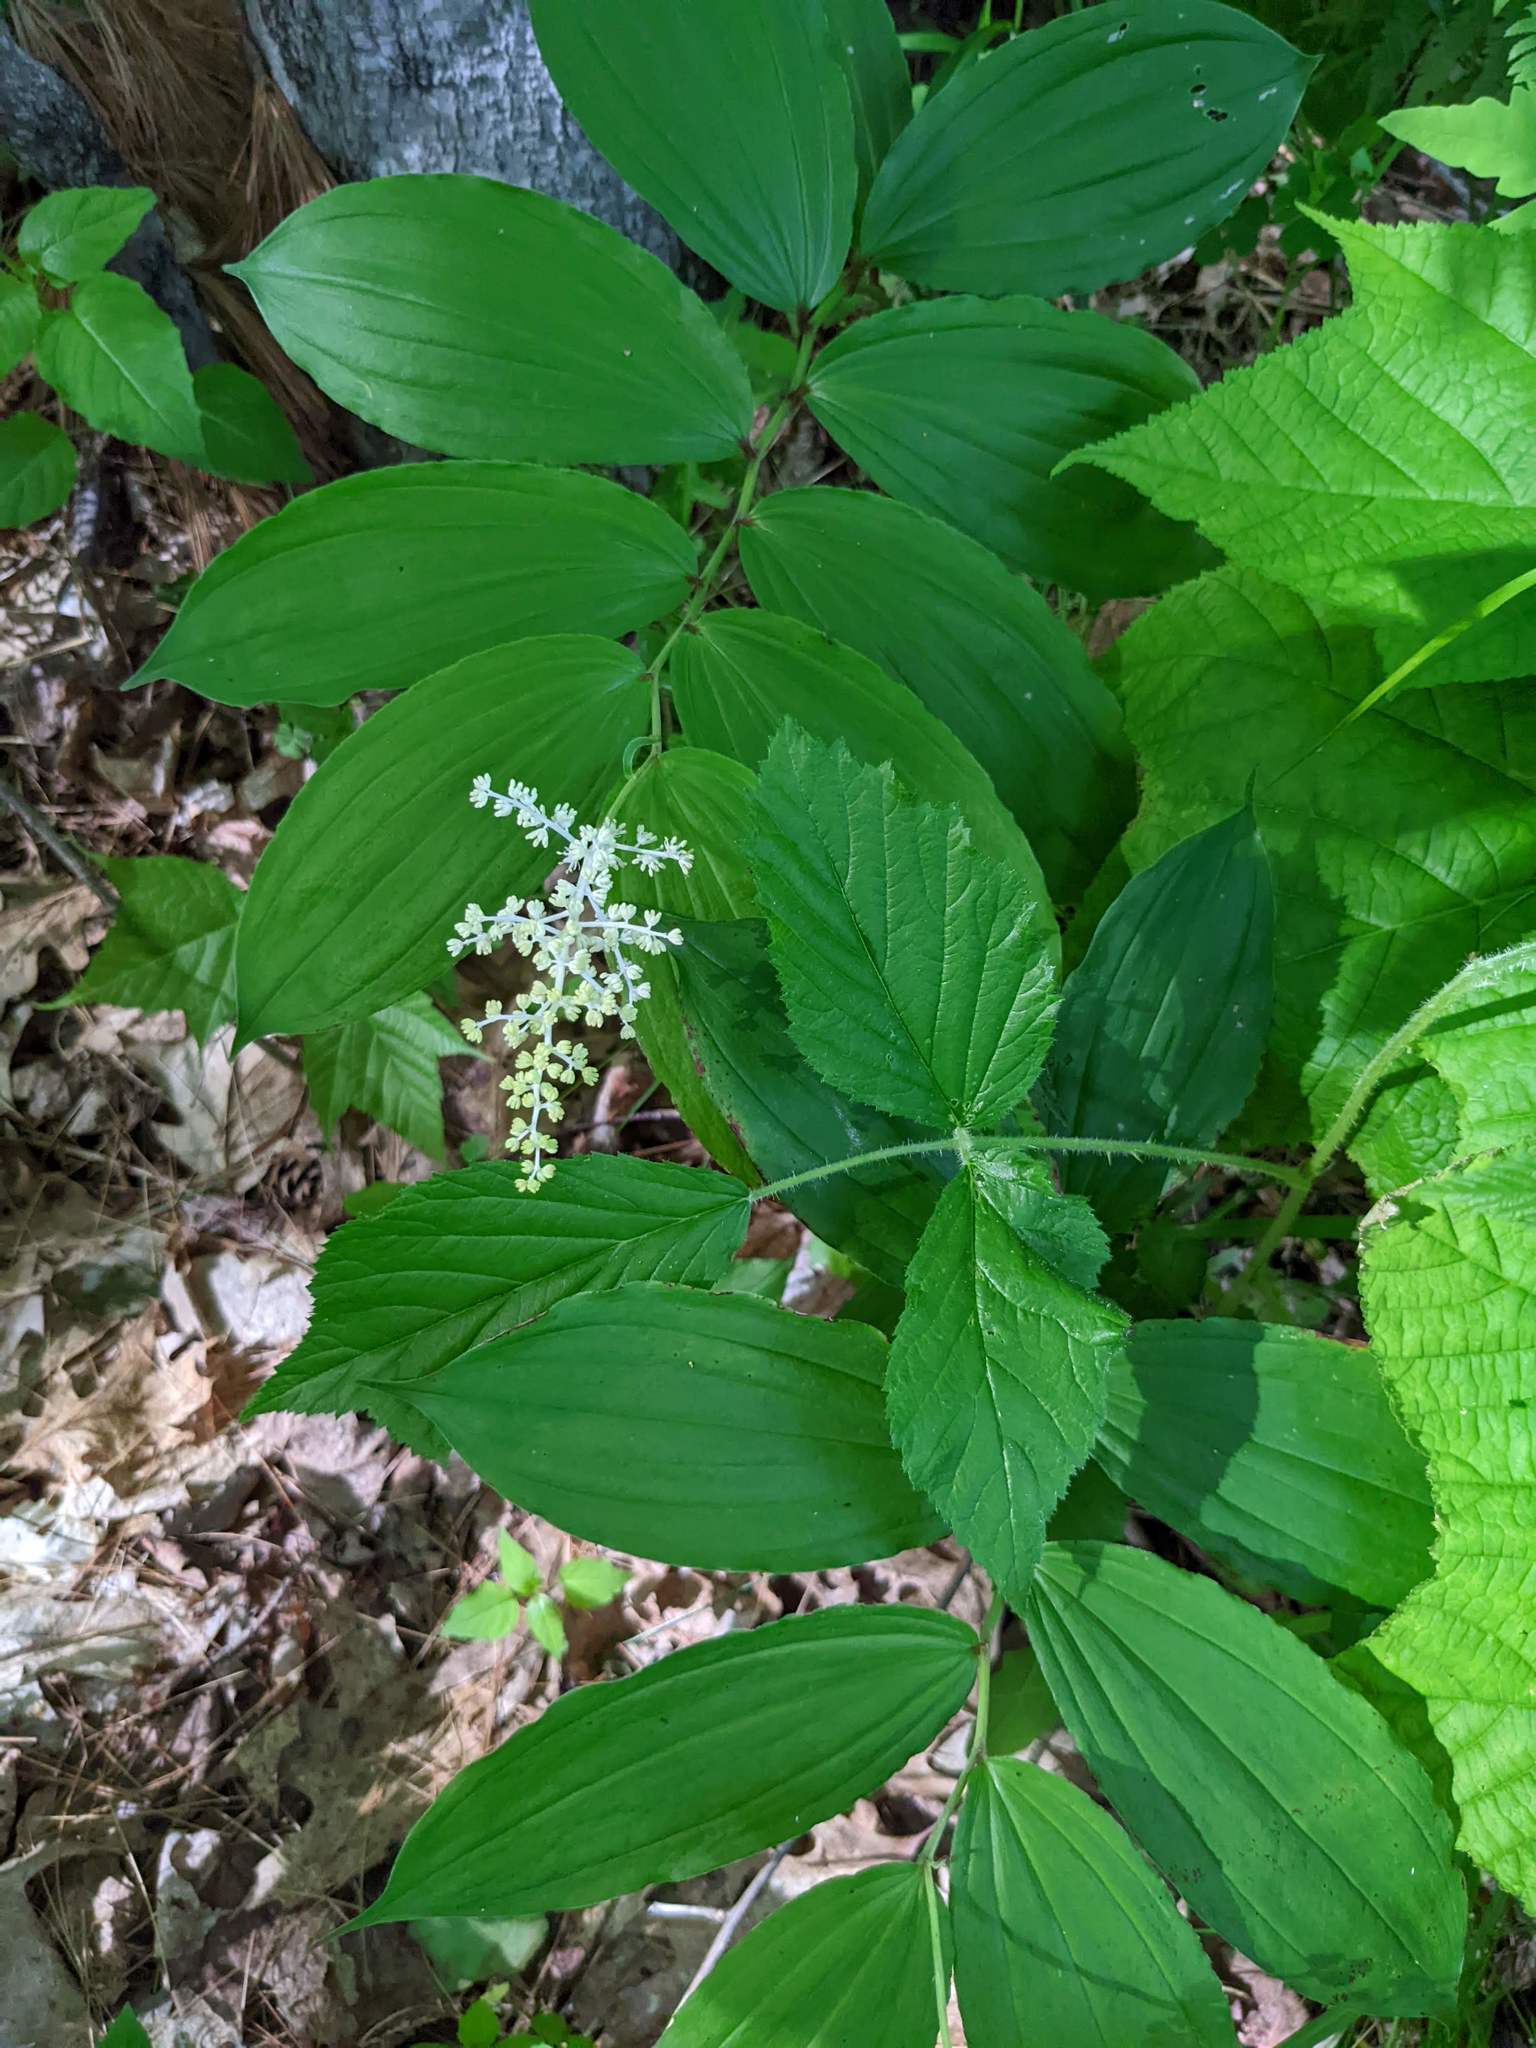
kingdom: Plantae
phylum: Tracheophyta
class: Liliopsida
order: Asparagales
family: Asparagaceae
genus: Maianthemum
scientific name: Maianthemum racemosum
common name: False spikenard
